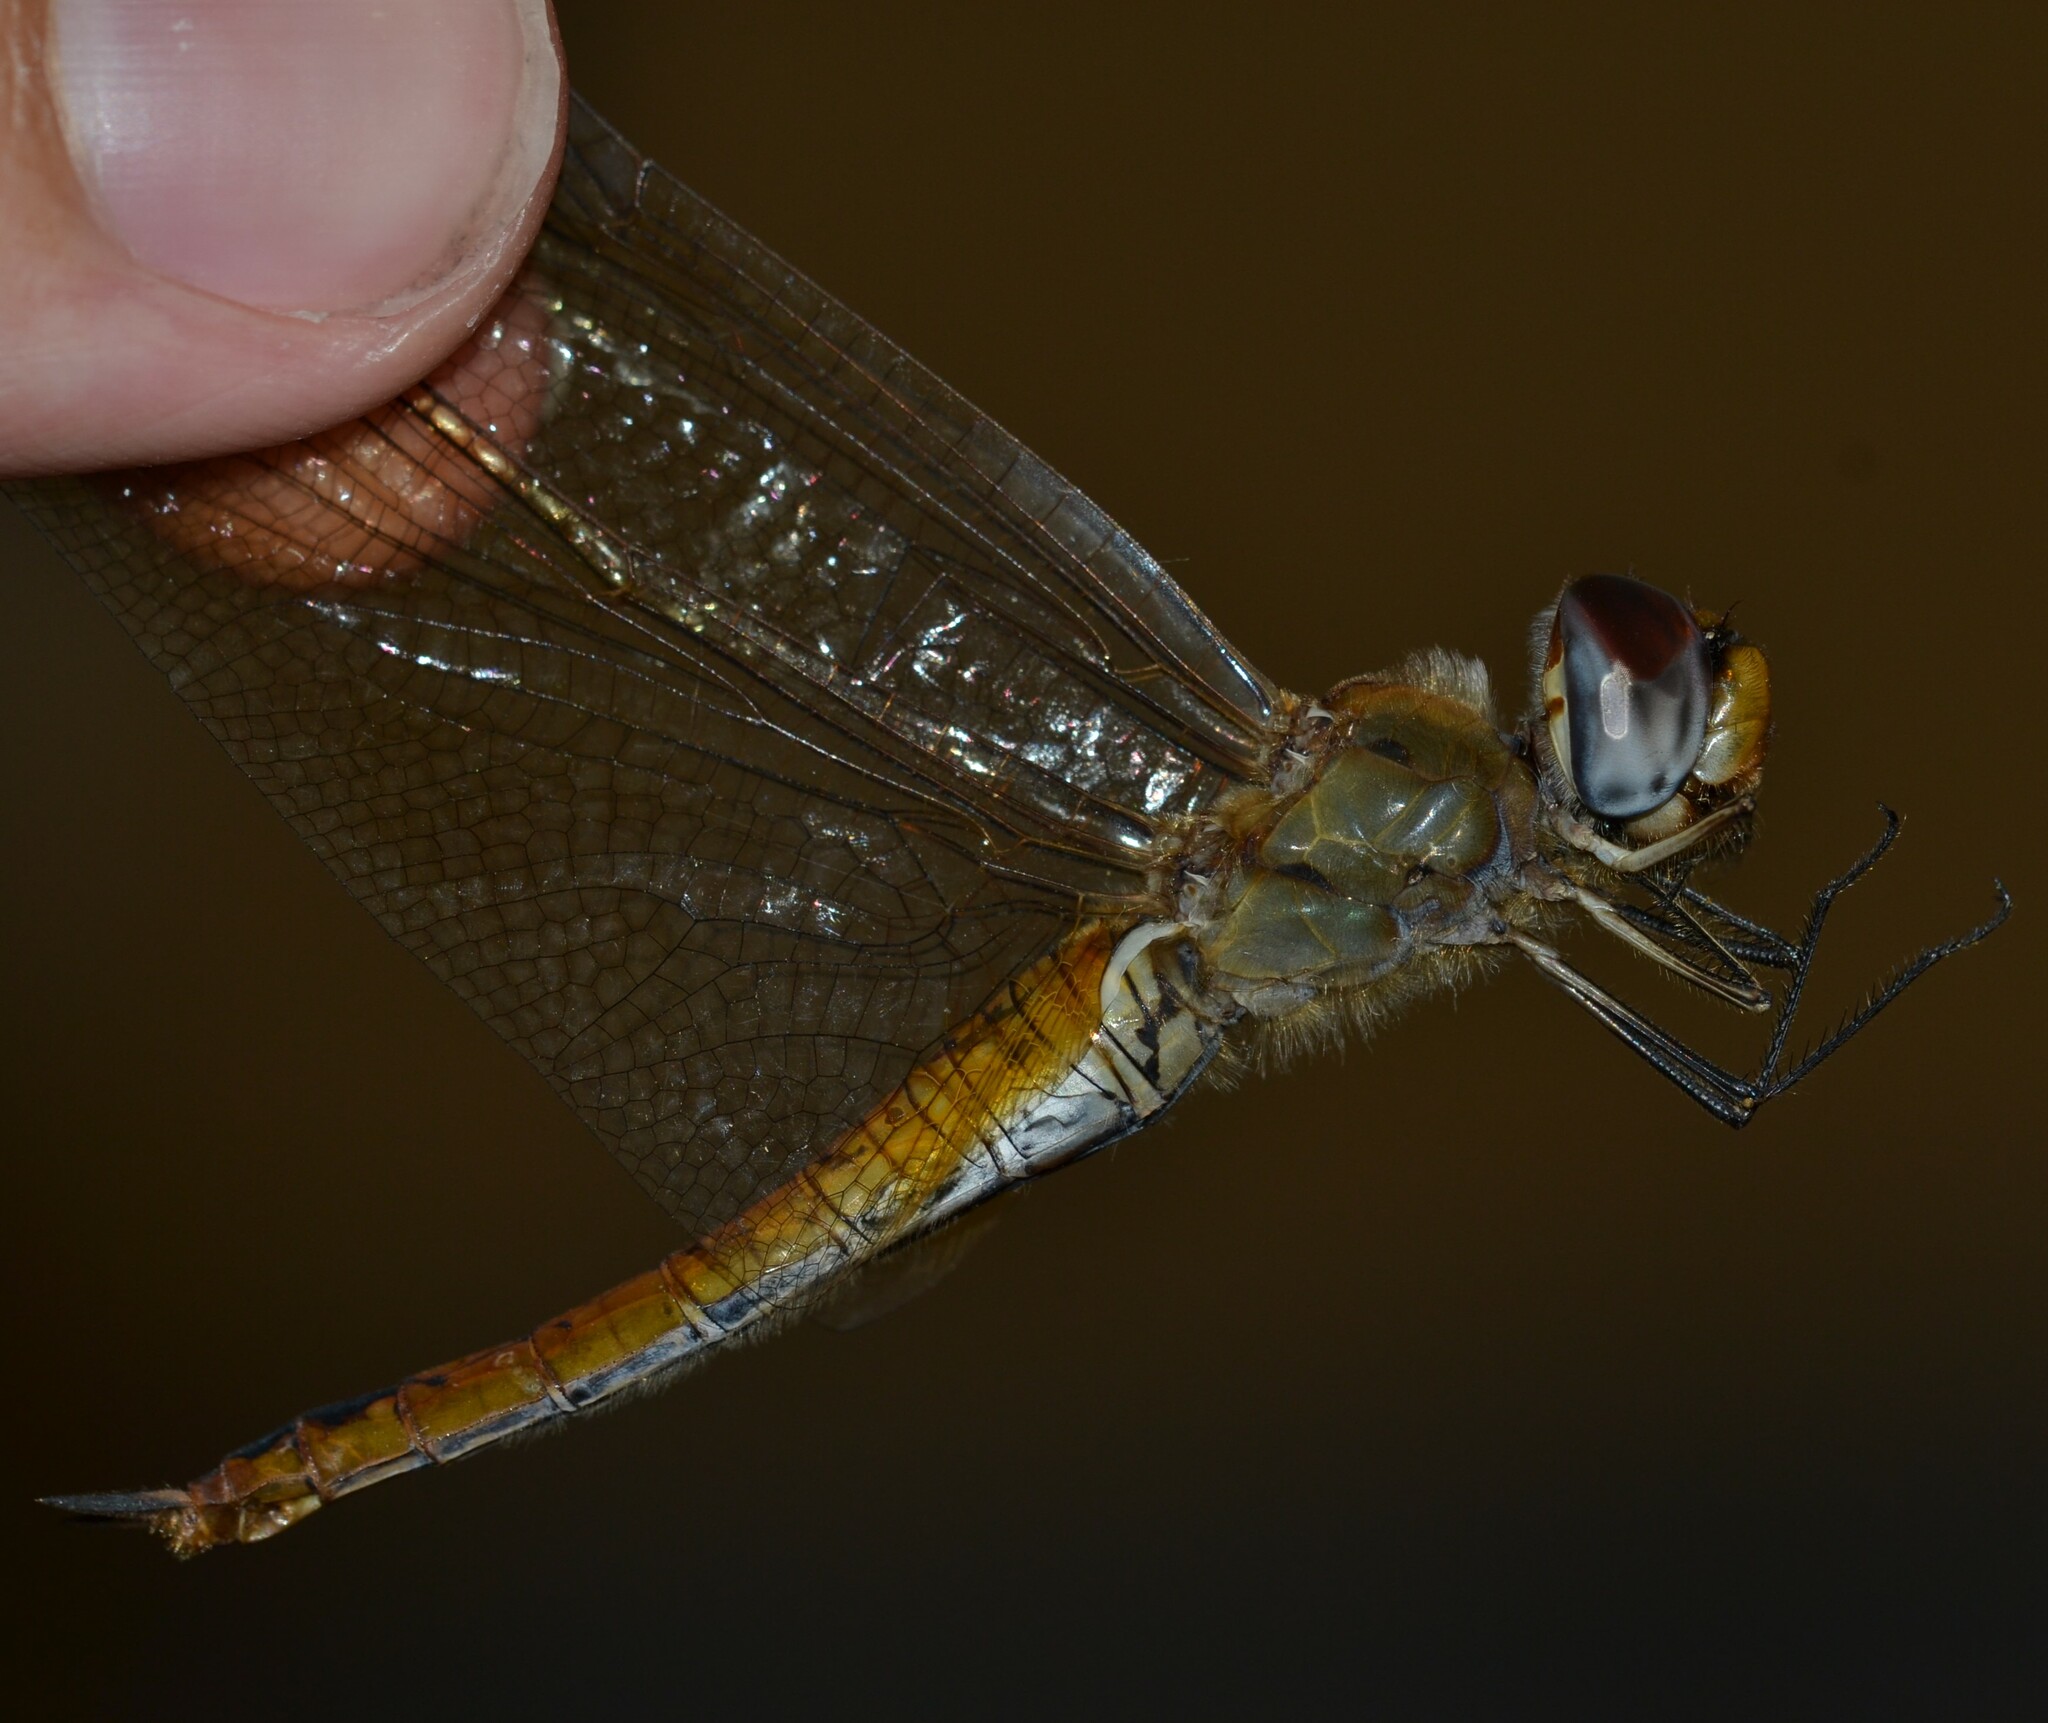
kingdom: Animalia
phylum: Arthropoda
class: Insecta
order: Odonata
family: Libellulidae
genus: Pantala
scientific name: Pantala flavescens
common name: Wandering glider
